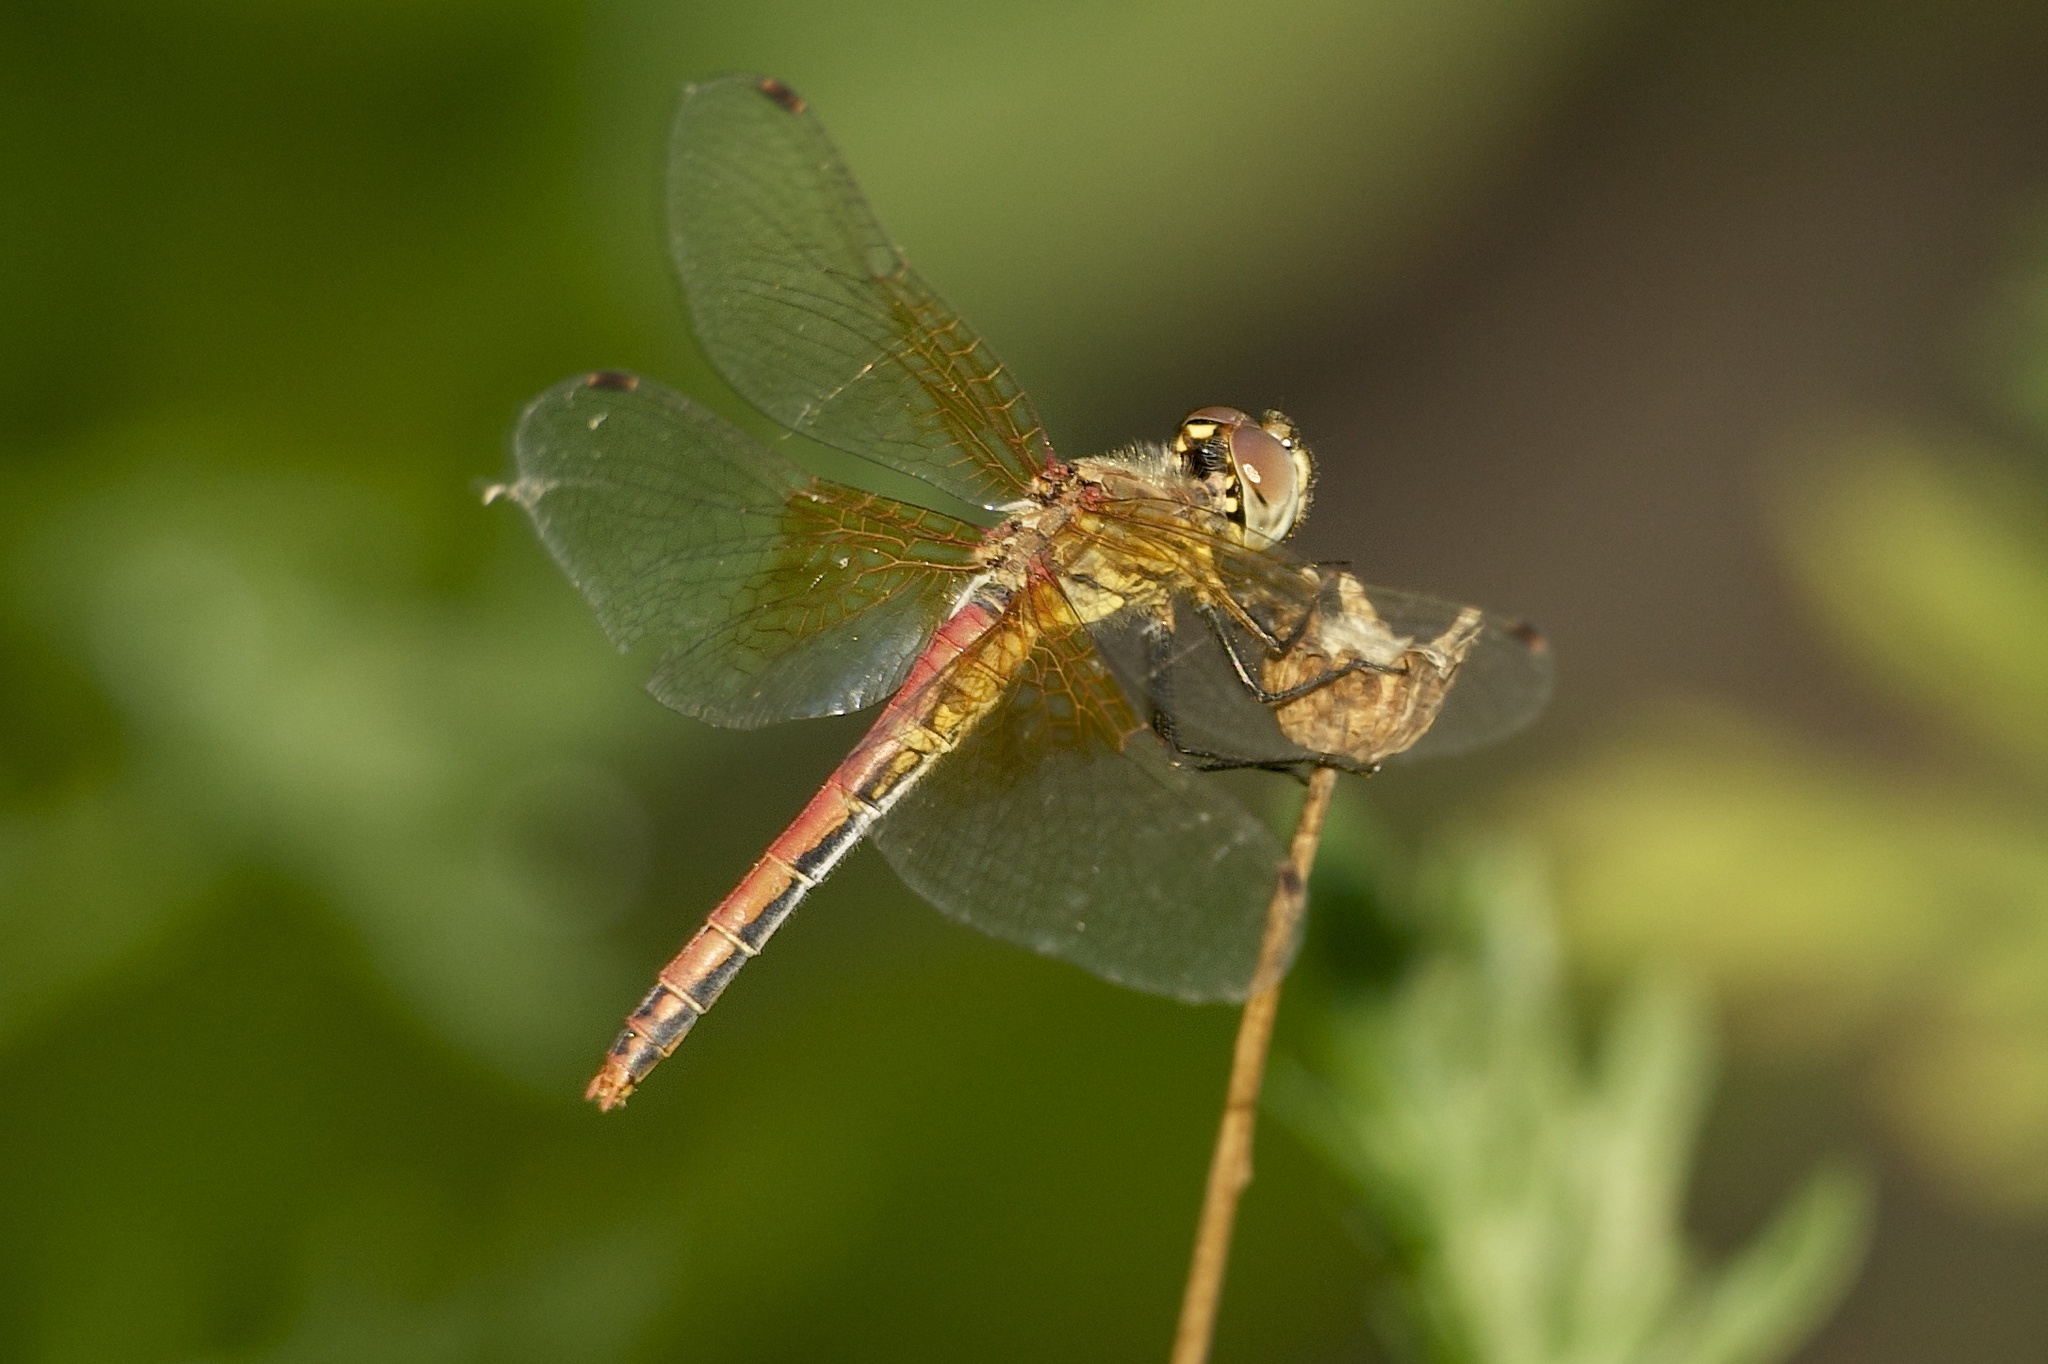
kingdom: Animalia
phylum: Arthropoda
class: Insecta
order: Odonata
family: Libellulidae
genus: Sympetrum
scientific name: Sympetrum semicinctum
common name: Band-winged meadowhawk
